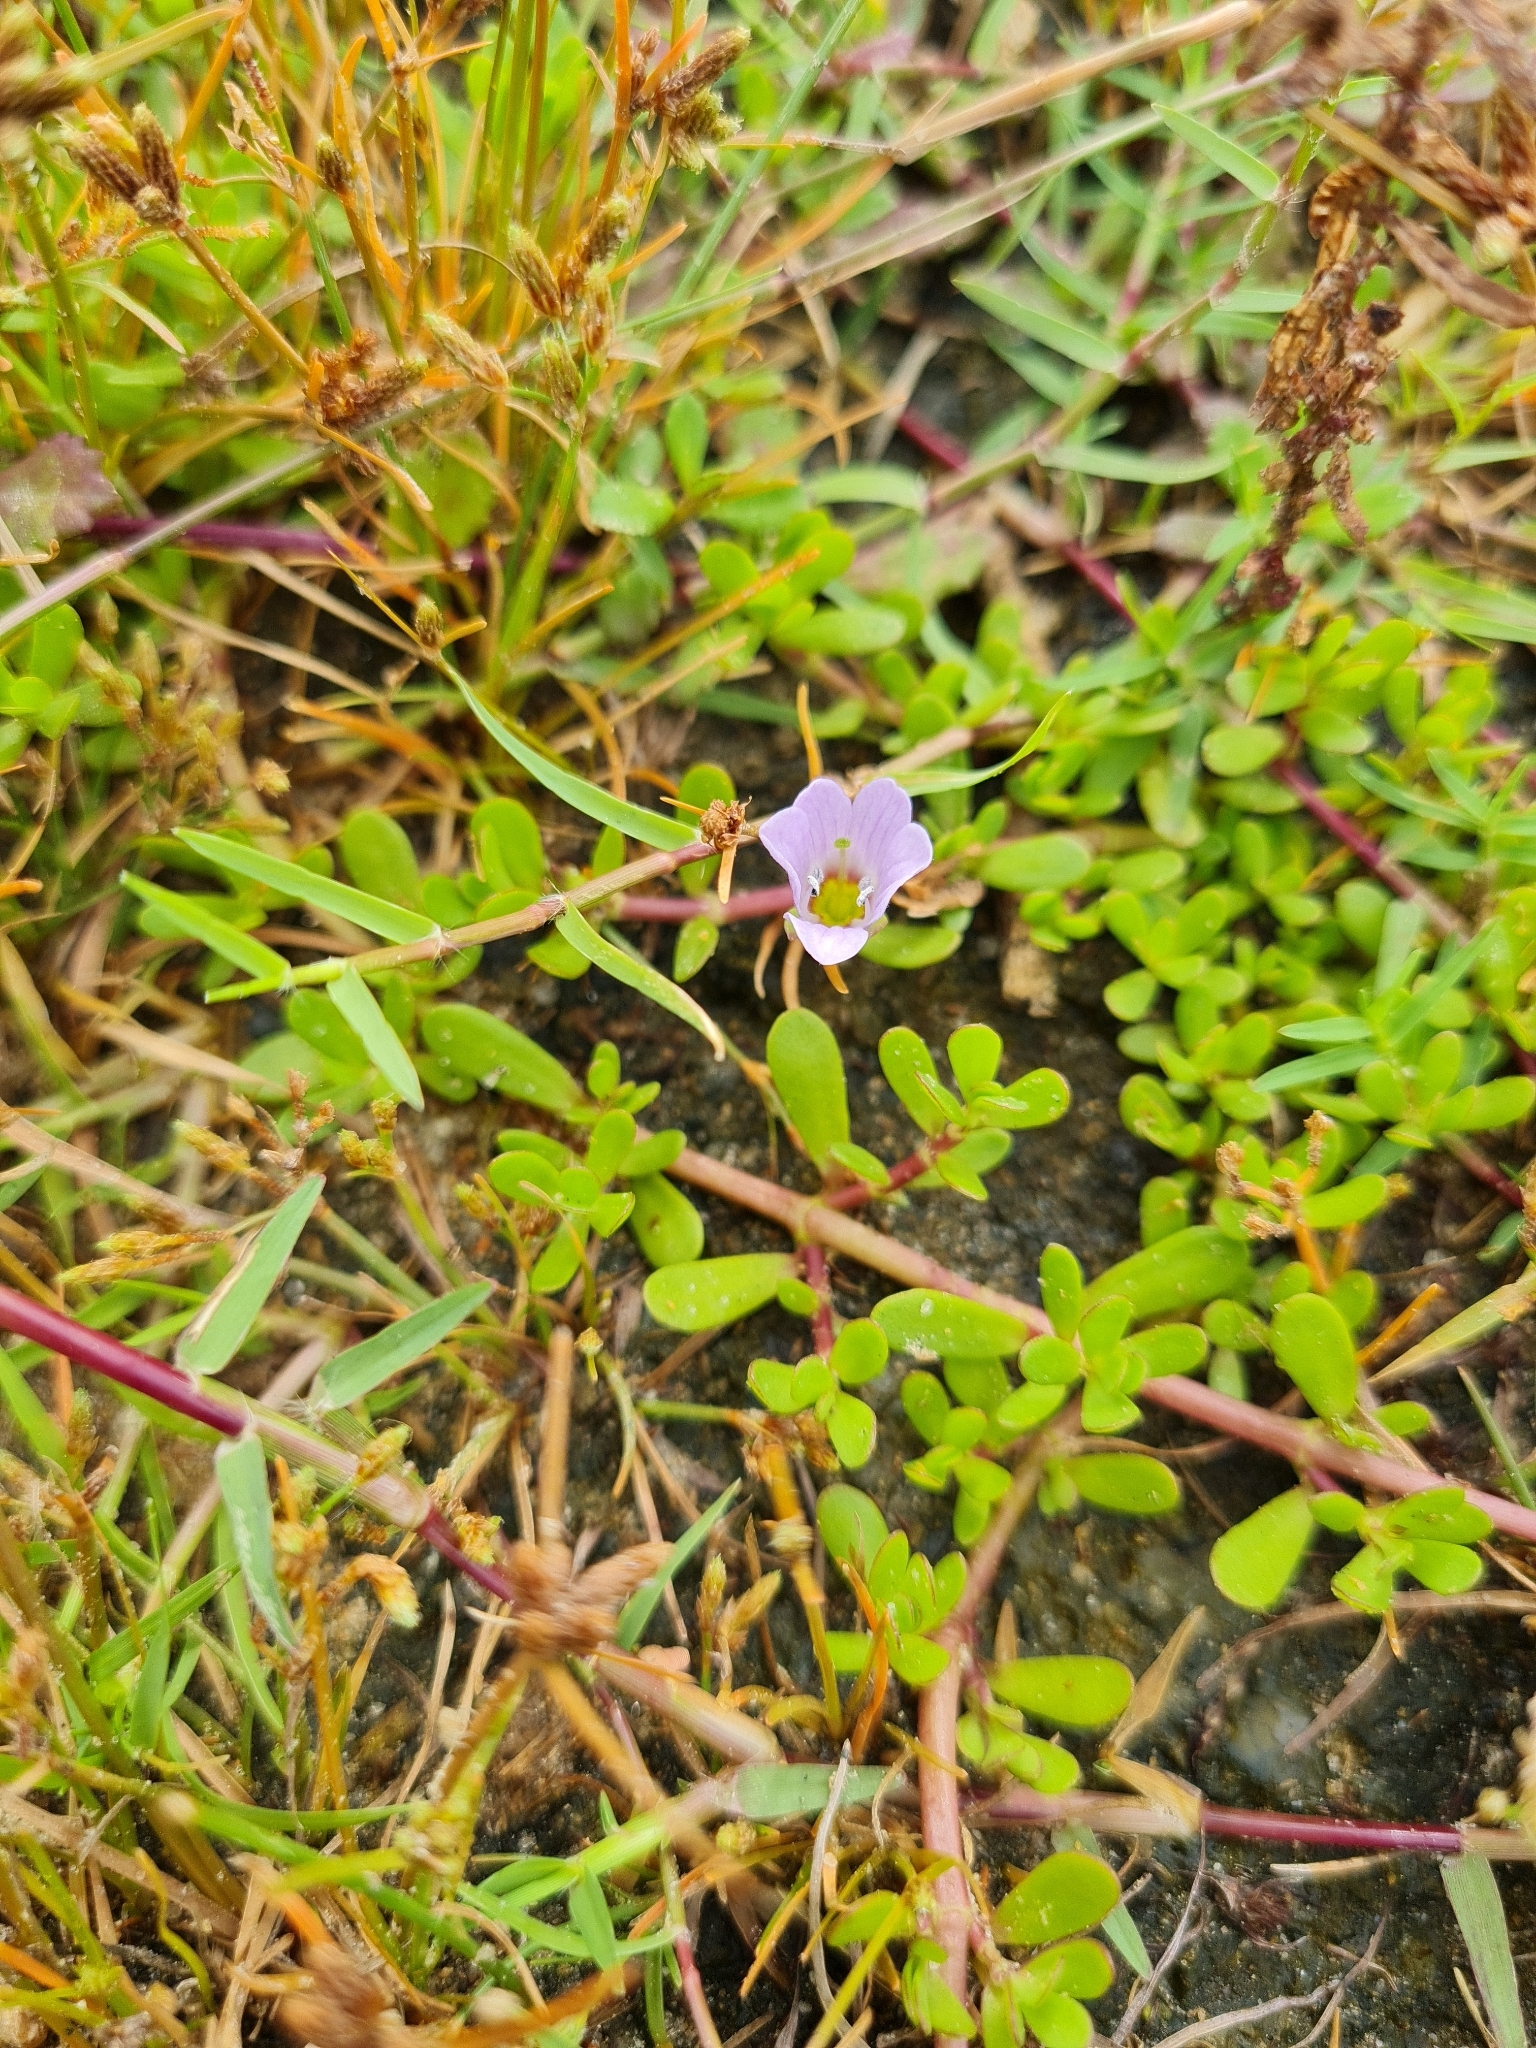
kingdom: Plantae
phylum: Tracheophyta
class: Magnoliopsida
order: Lamiales
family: Plantaginaceae
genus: Bacopa
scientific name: Bacopa monnieri
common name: Indian-pennywort
